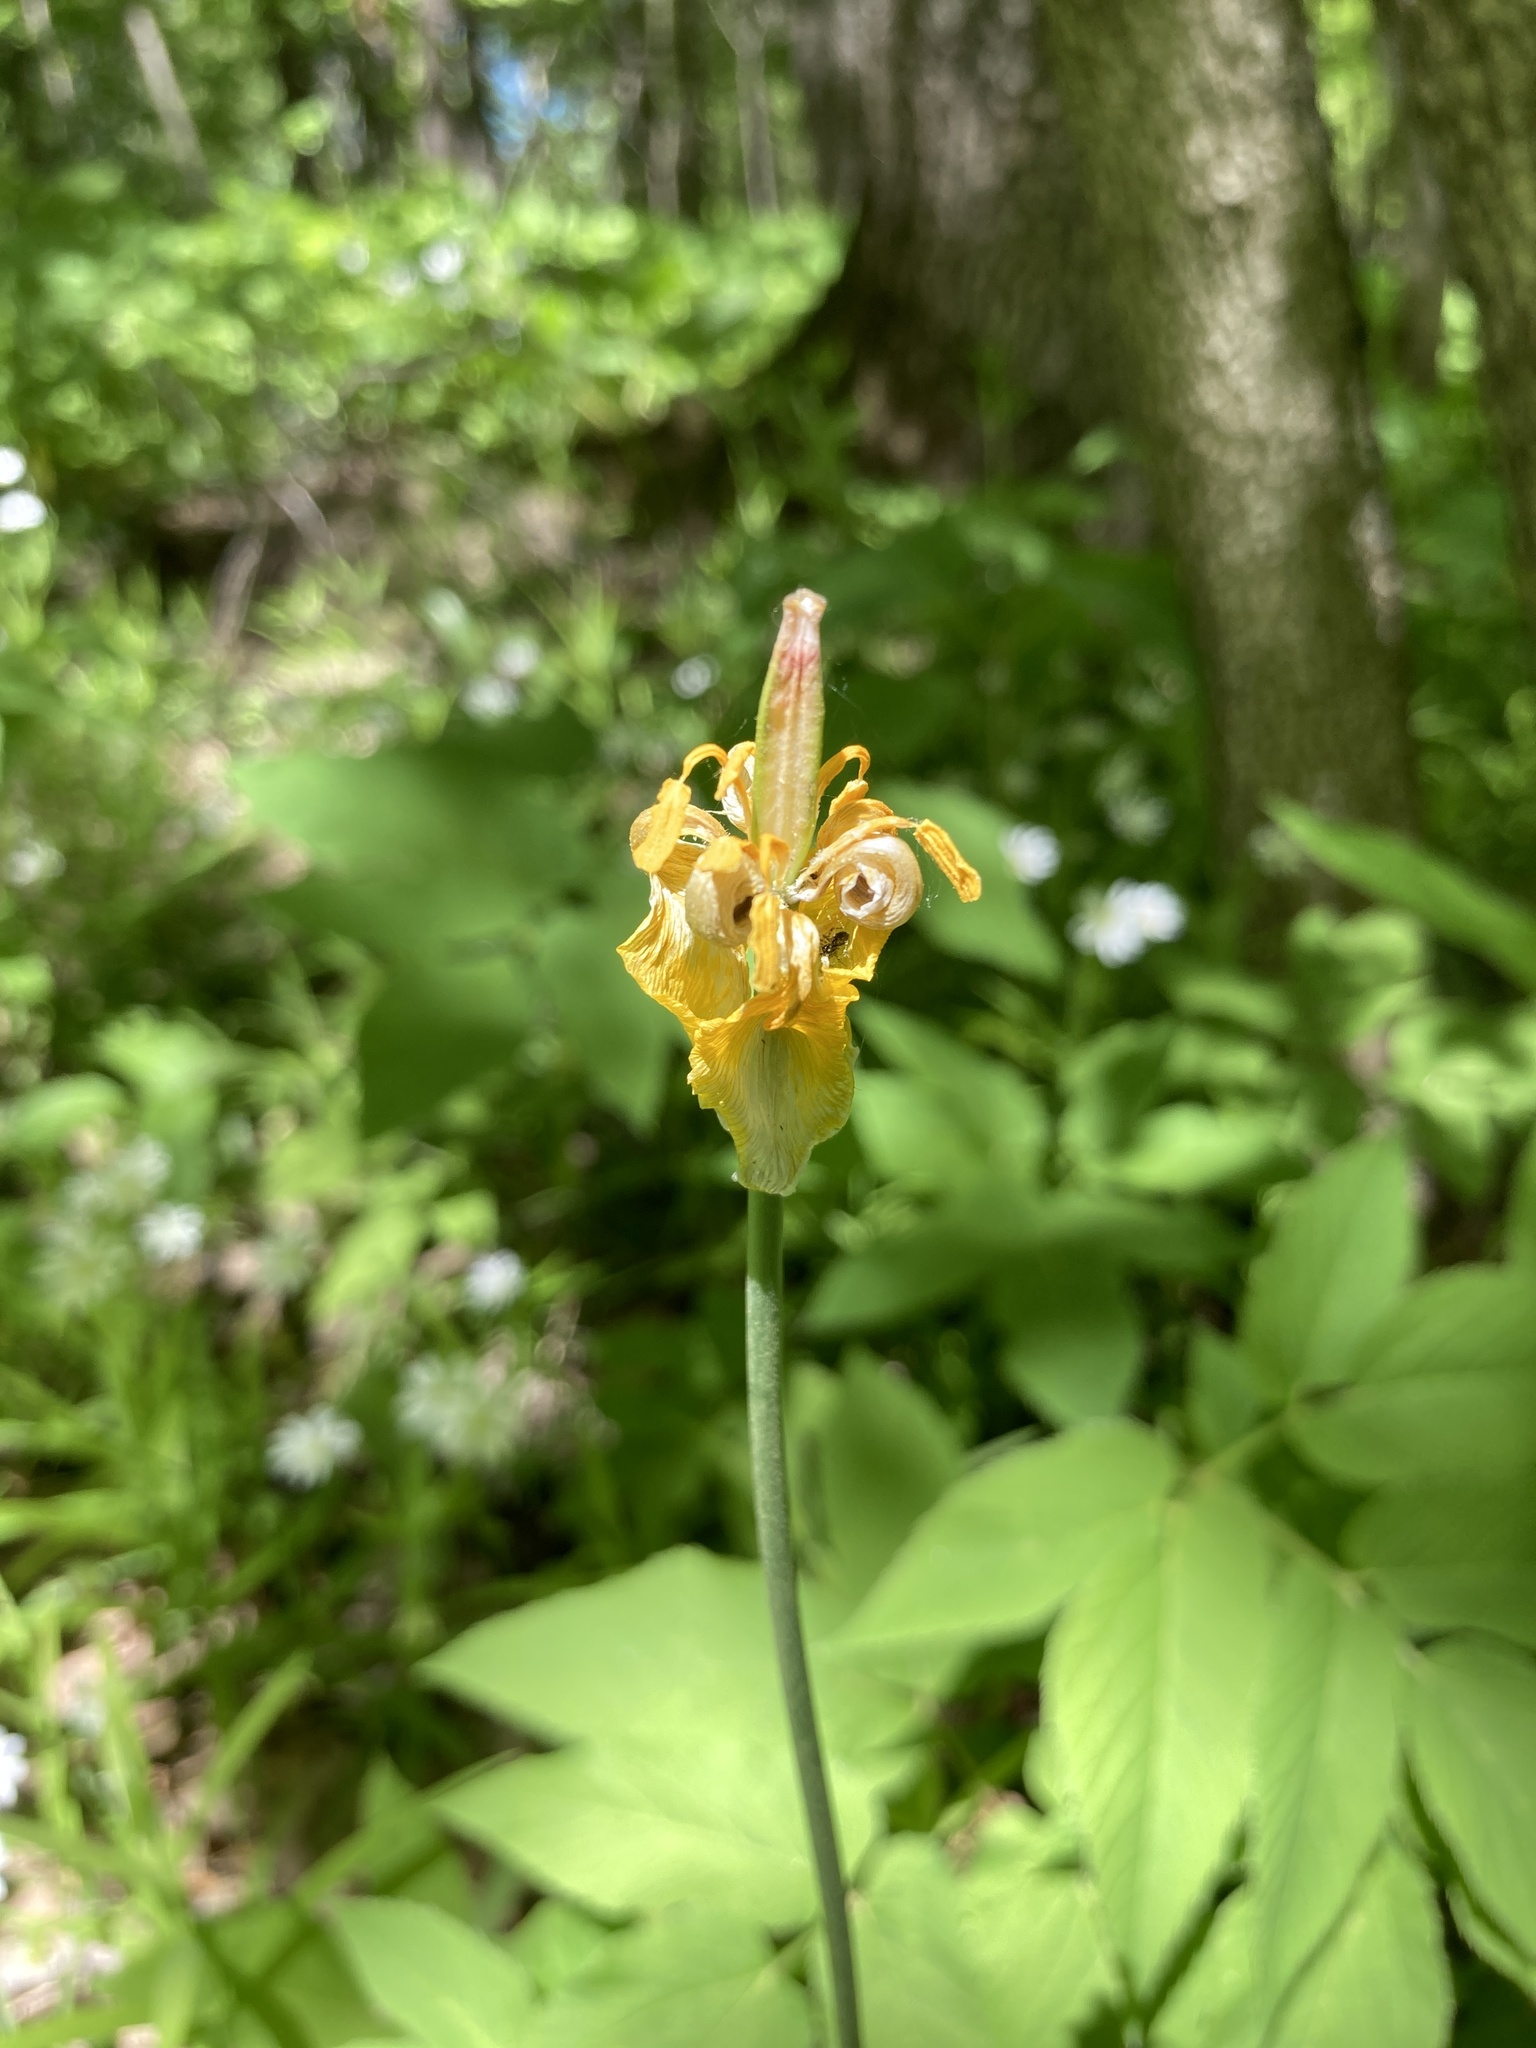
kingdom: Plantae
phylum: Tracheophyta
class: Liliopsida
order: Liliales
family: Liliaceae
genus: Tulipa
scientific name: Tulipa sylvestris
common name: Wild tulip
